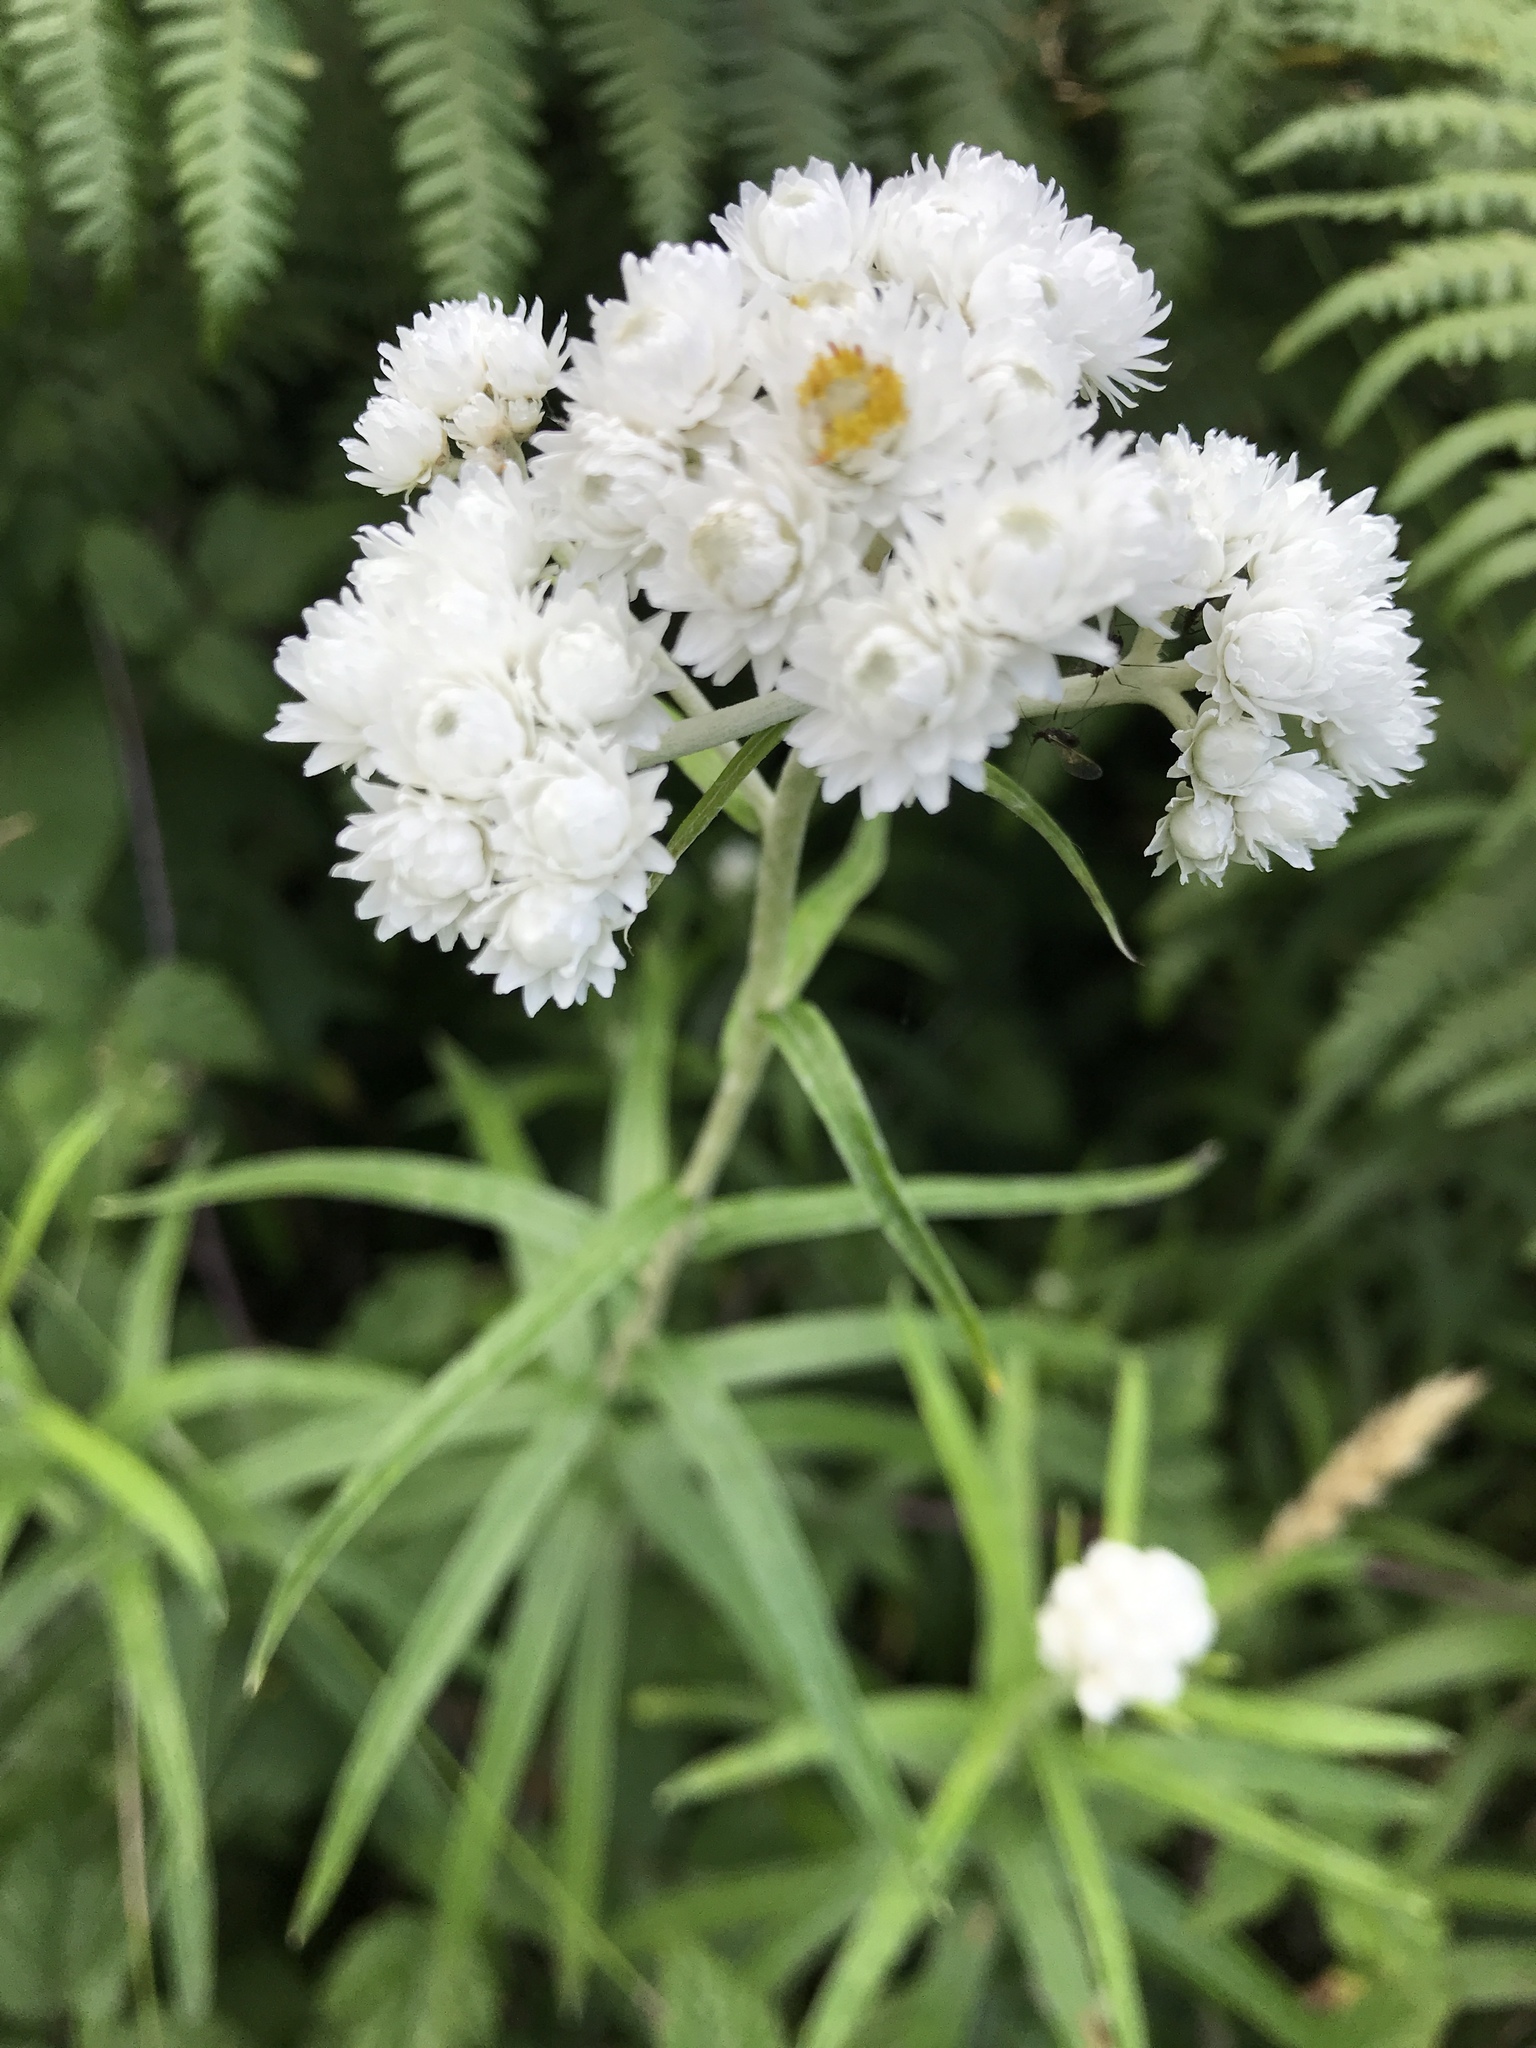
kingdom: Plantae
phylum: Tracheophyta
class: Magnoliopsida
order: Asterales
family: Asteraceae
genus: Anaphalis
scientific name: Anaphalis margaritacea
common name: Pearly everlasting
